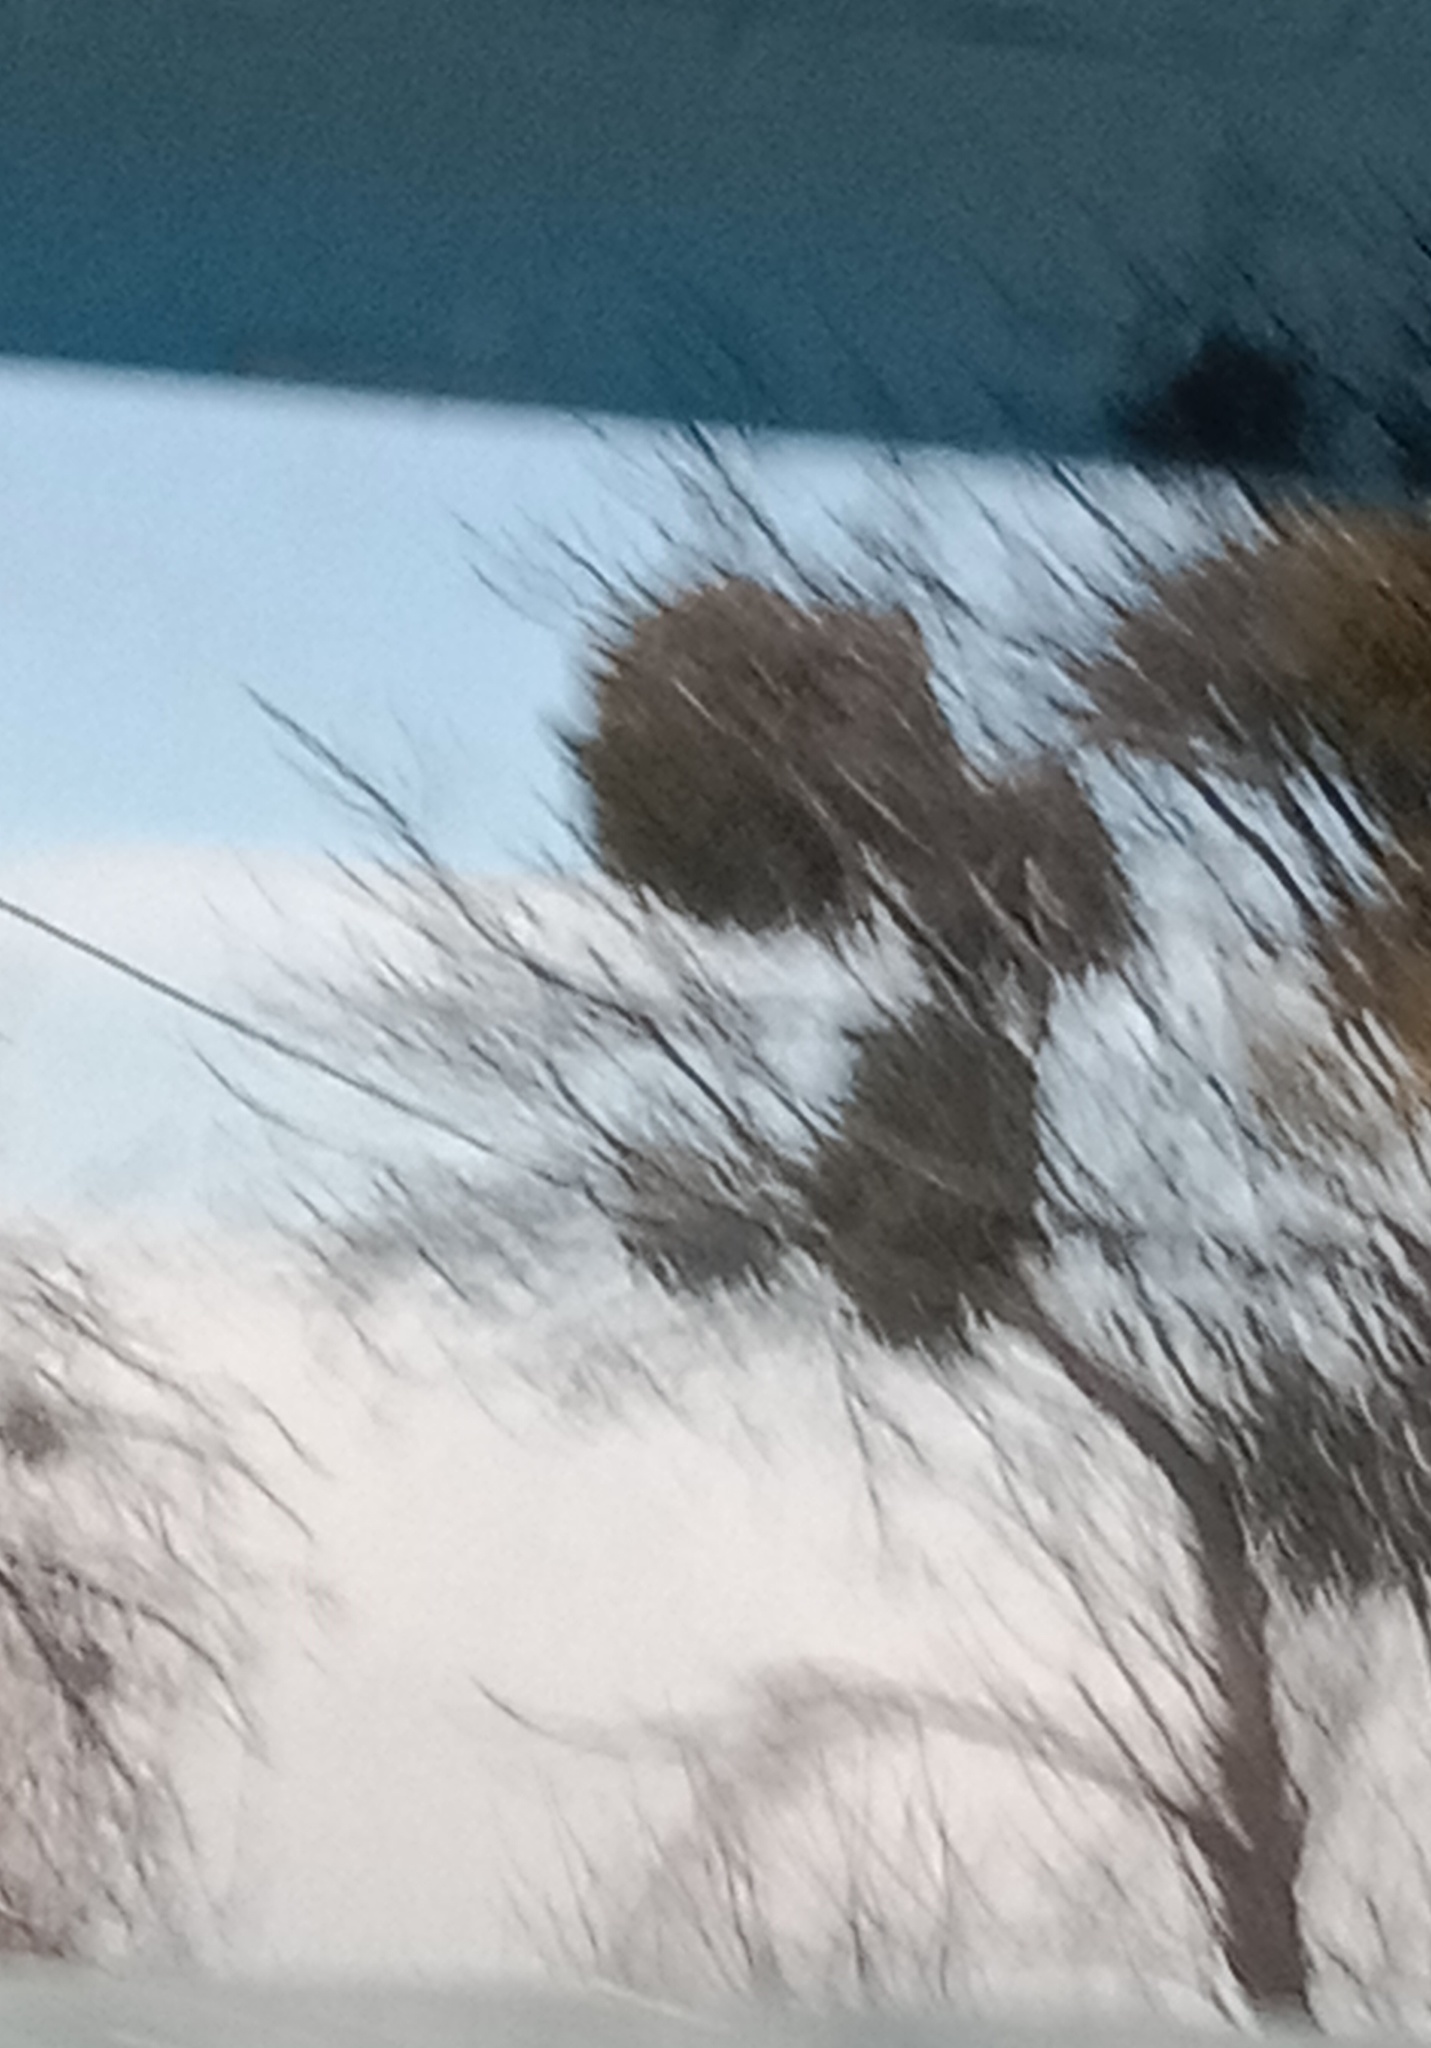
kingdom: Plantae
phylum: Tracheophyta
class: Magnoliopsida
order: Santalales
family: Viscaceae
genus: Viscum
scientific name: Viscum album
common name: Mistletoe
